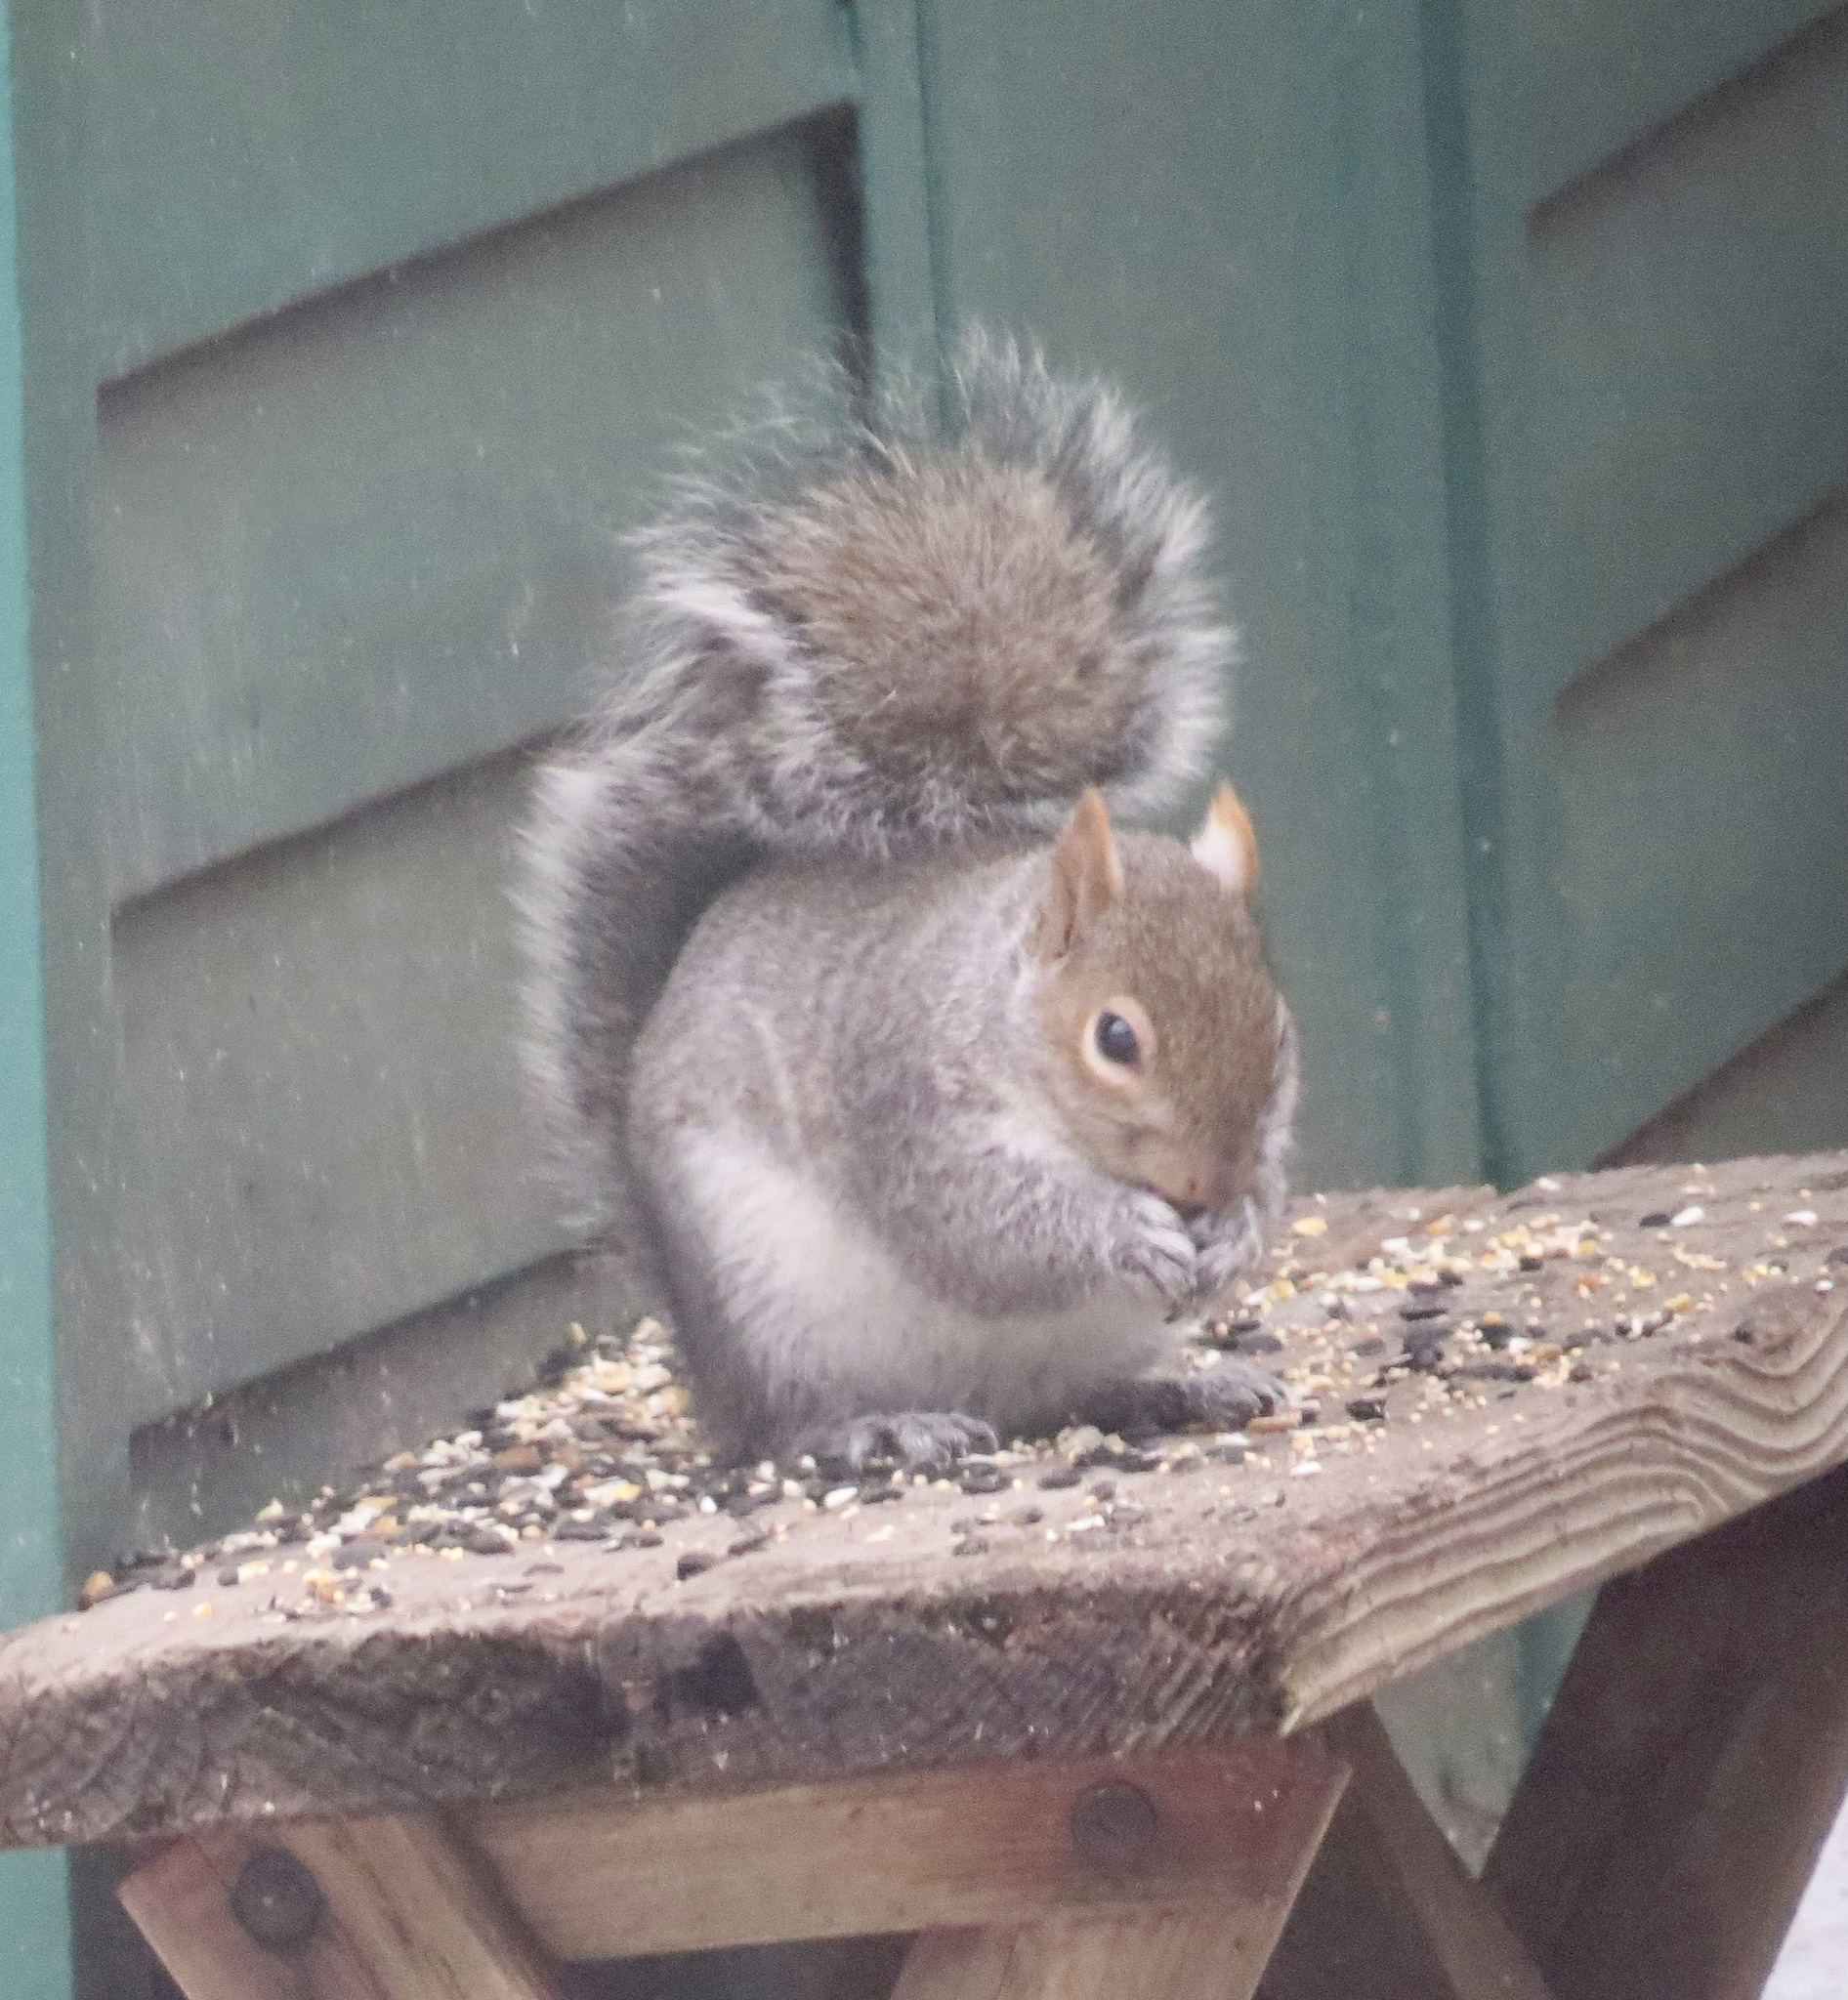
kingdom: Animalia
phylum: Chordata
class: Mammalia
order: Rodentia
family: Sciuridae
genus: Sciurus
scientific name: Sciurus carolinensis
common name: Eastern gray squirrel
